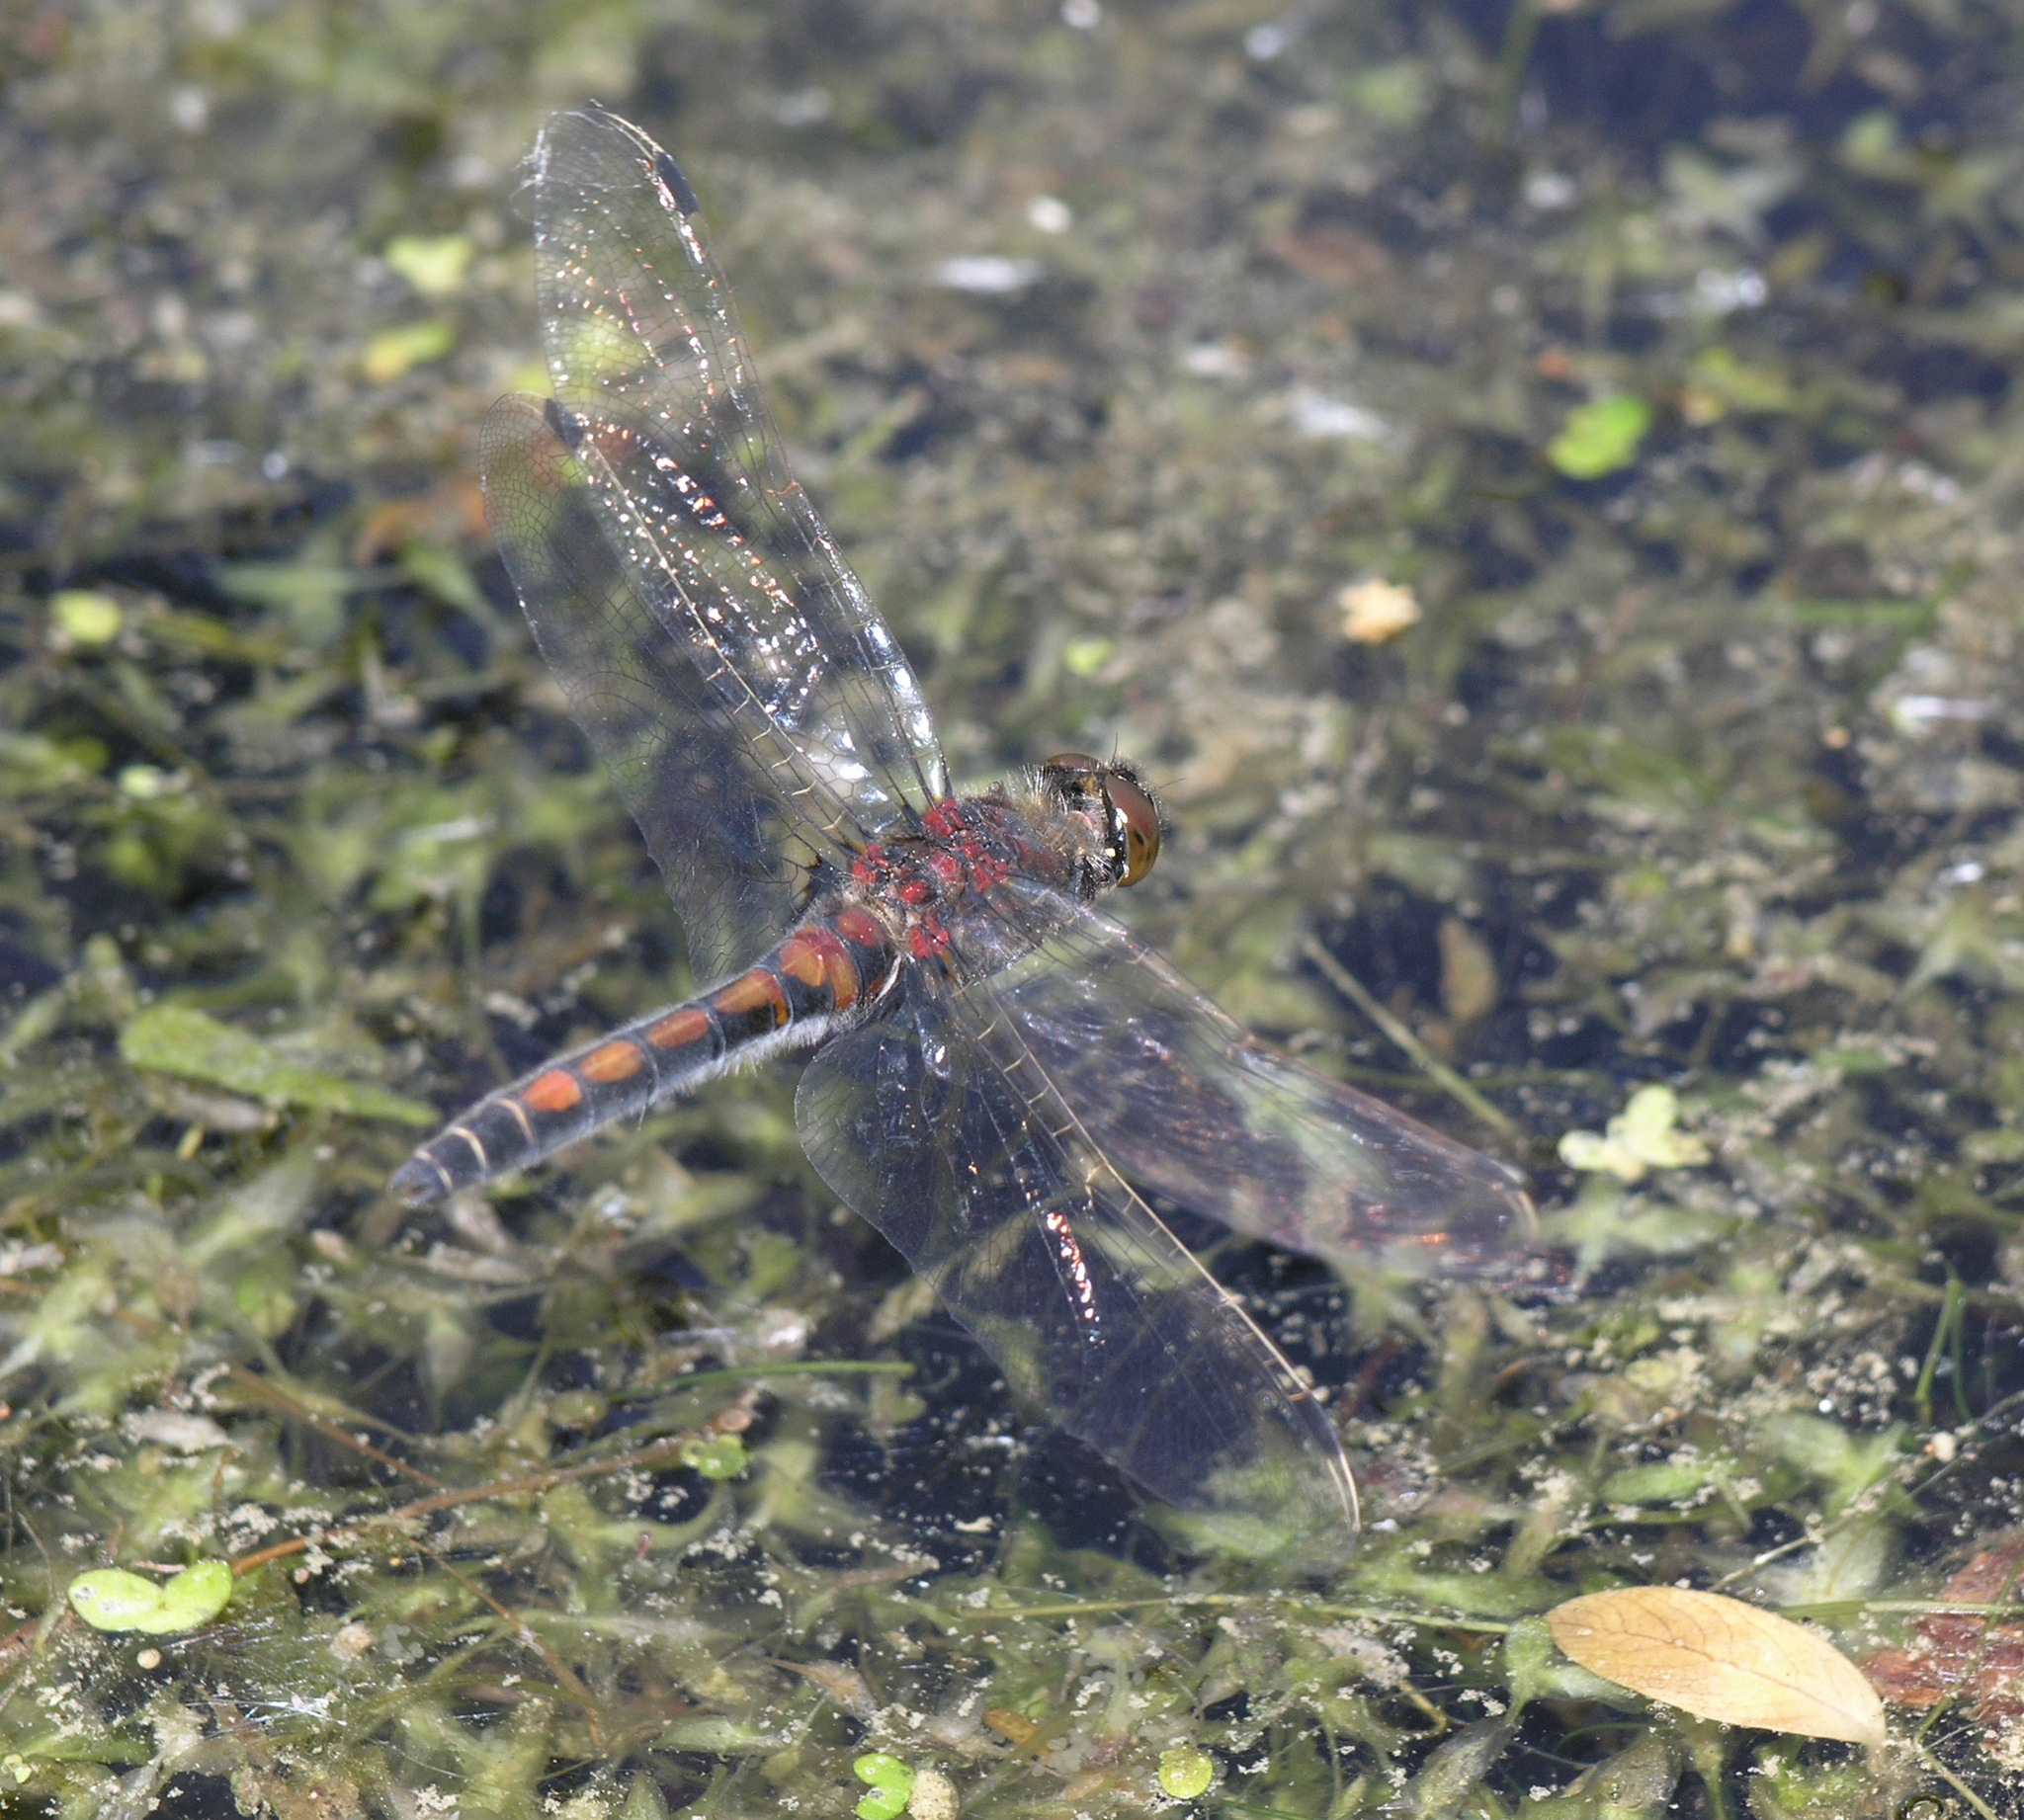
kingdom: Animalia
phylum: Arthropoda
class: Insecta
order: Odonata
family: Libellulidae
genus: Leucorrhinia
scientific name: Leucorrhinia rubicunda
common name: Ruby whiteface
